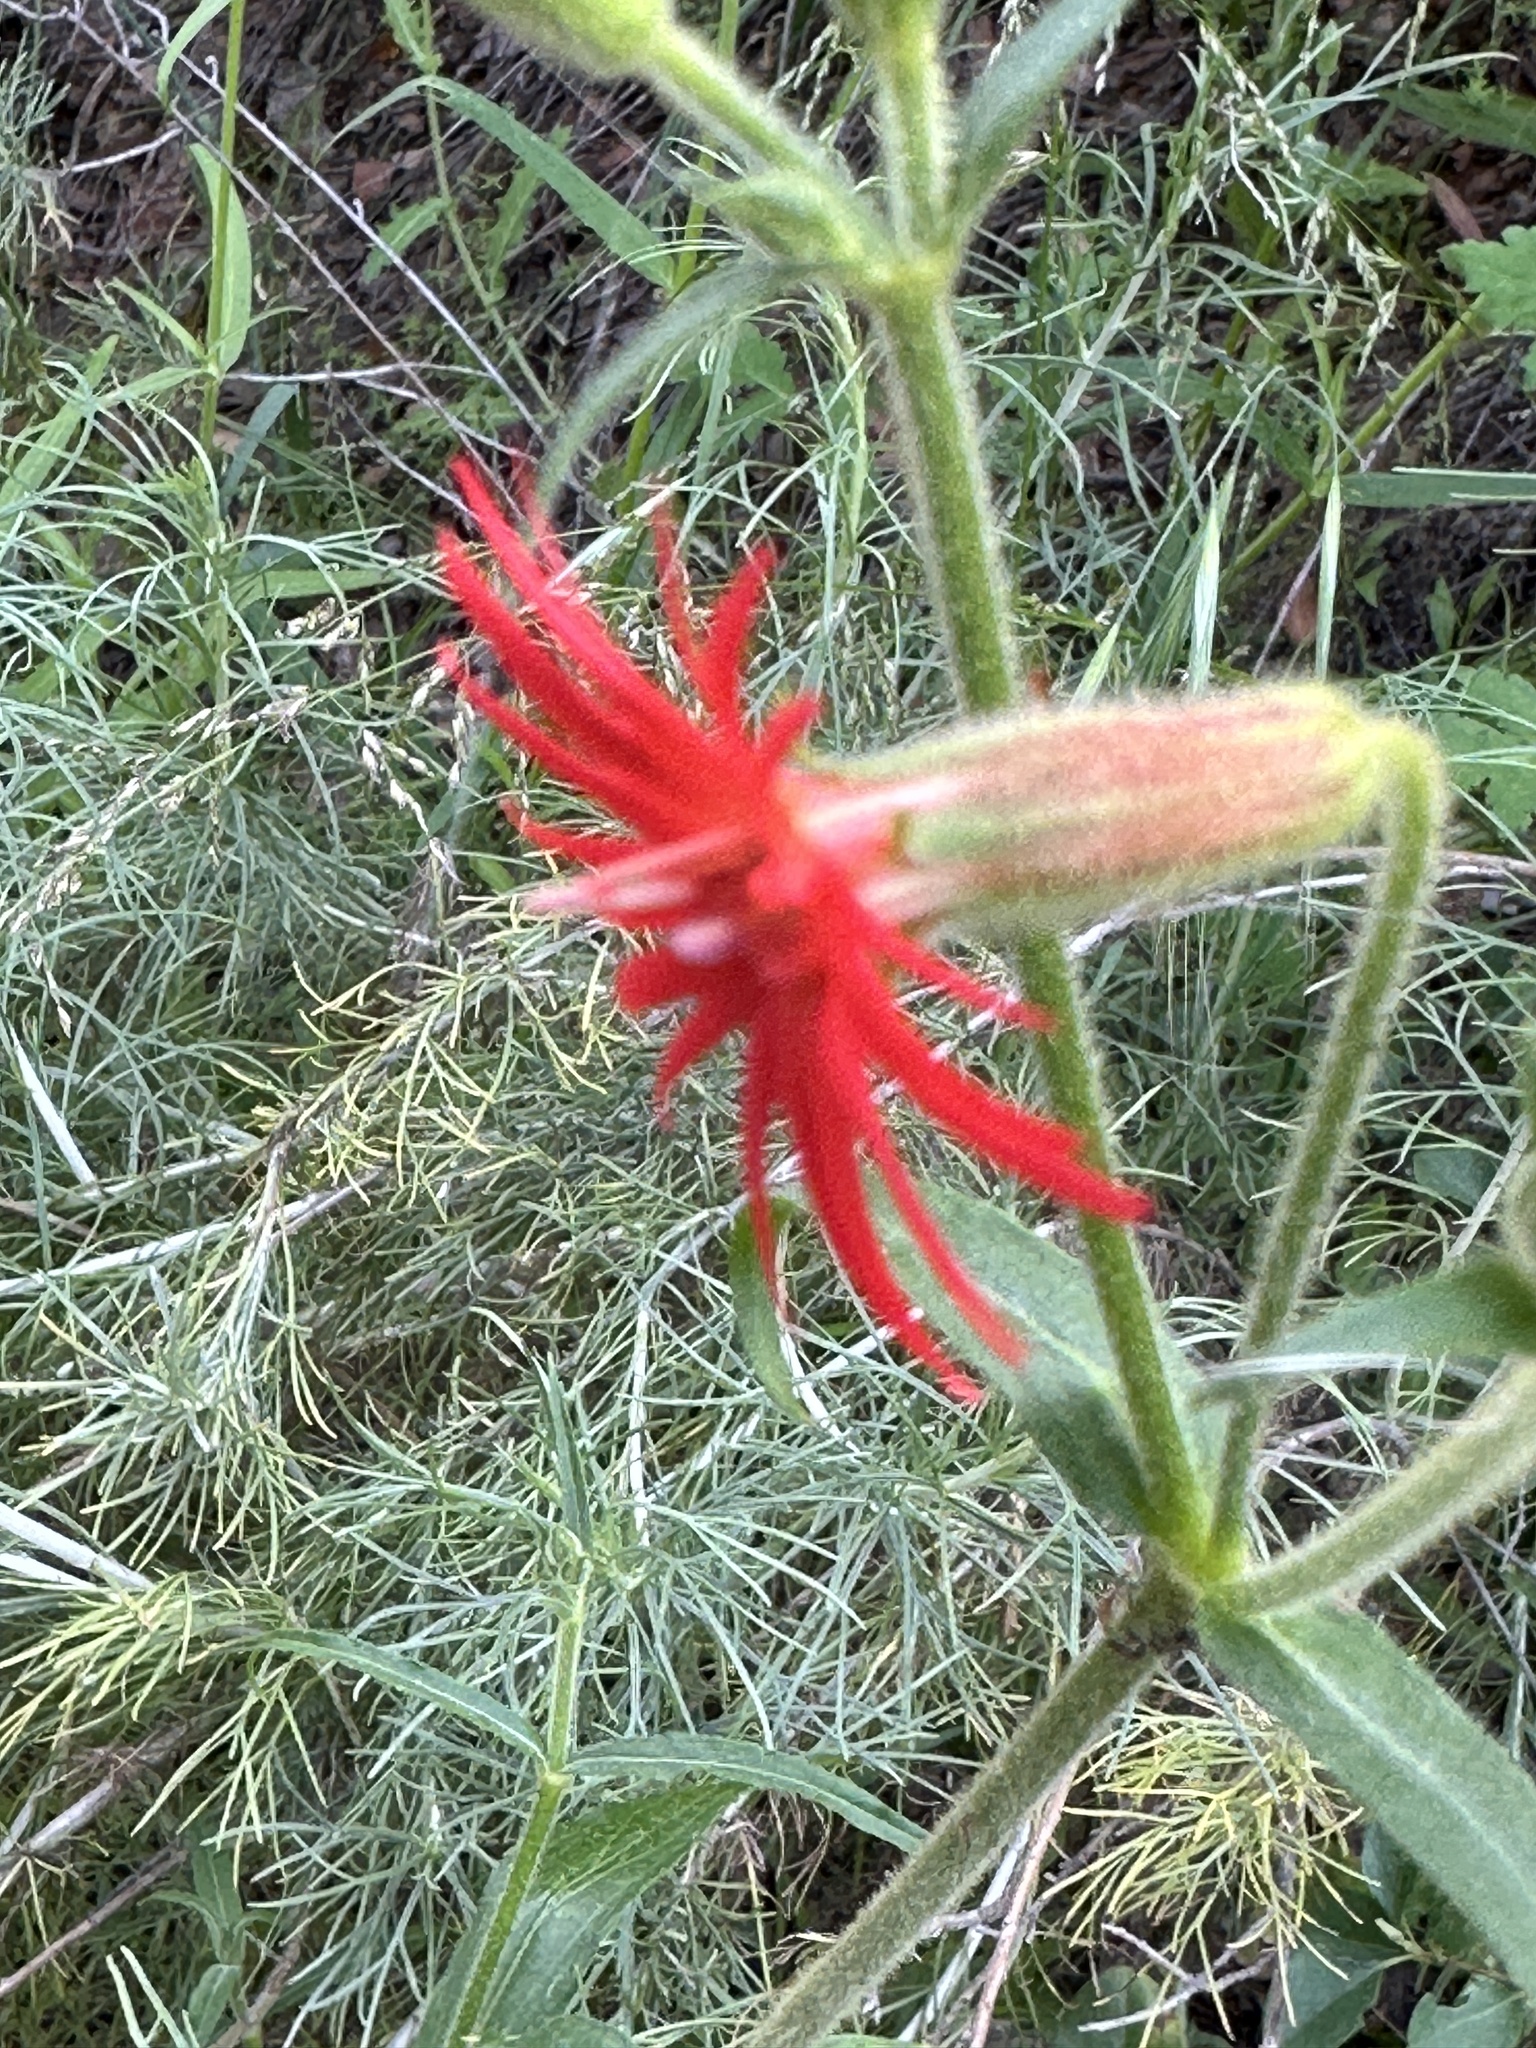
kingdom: Plantae
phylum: Tracheophyta
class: Magnoliopsida
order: Caryophyllales
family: Caryophyllaceae
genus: Silene
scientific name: Silene laciniata
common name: Indian-pink
